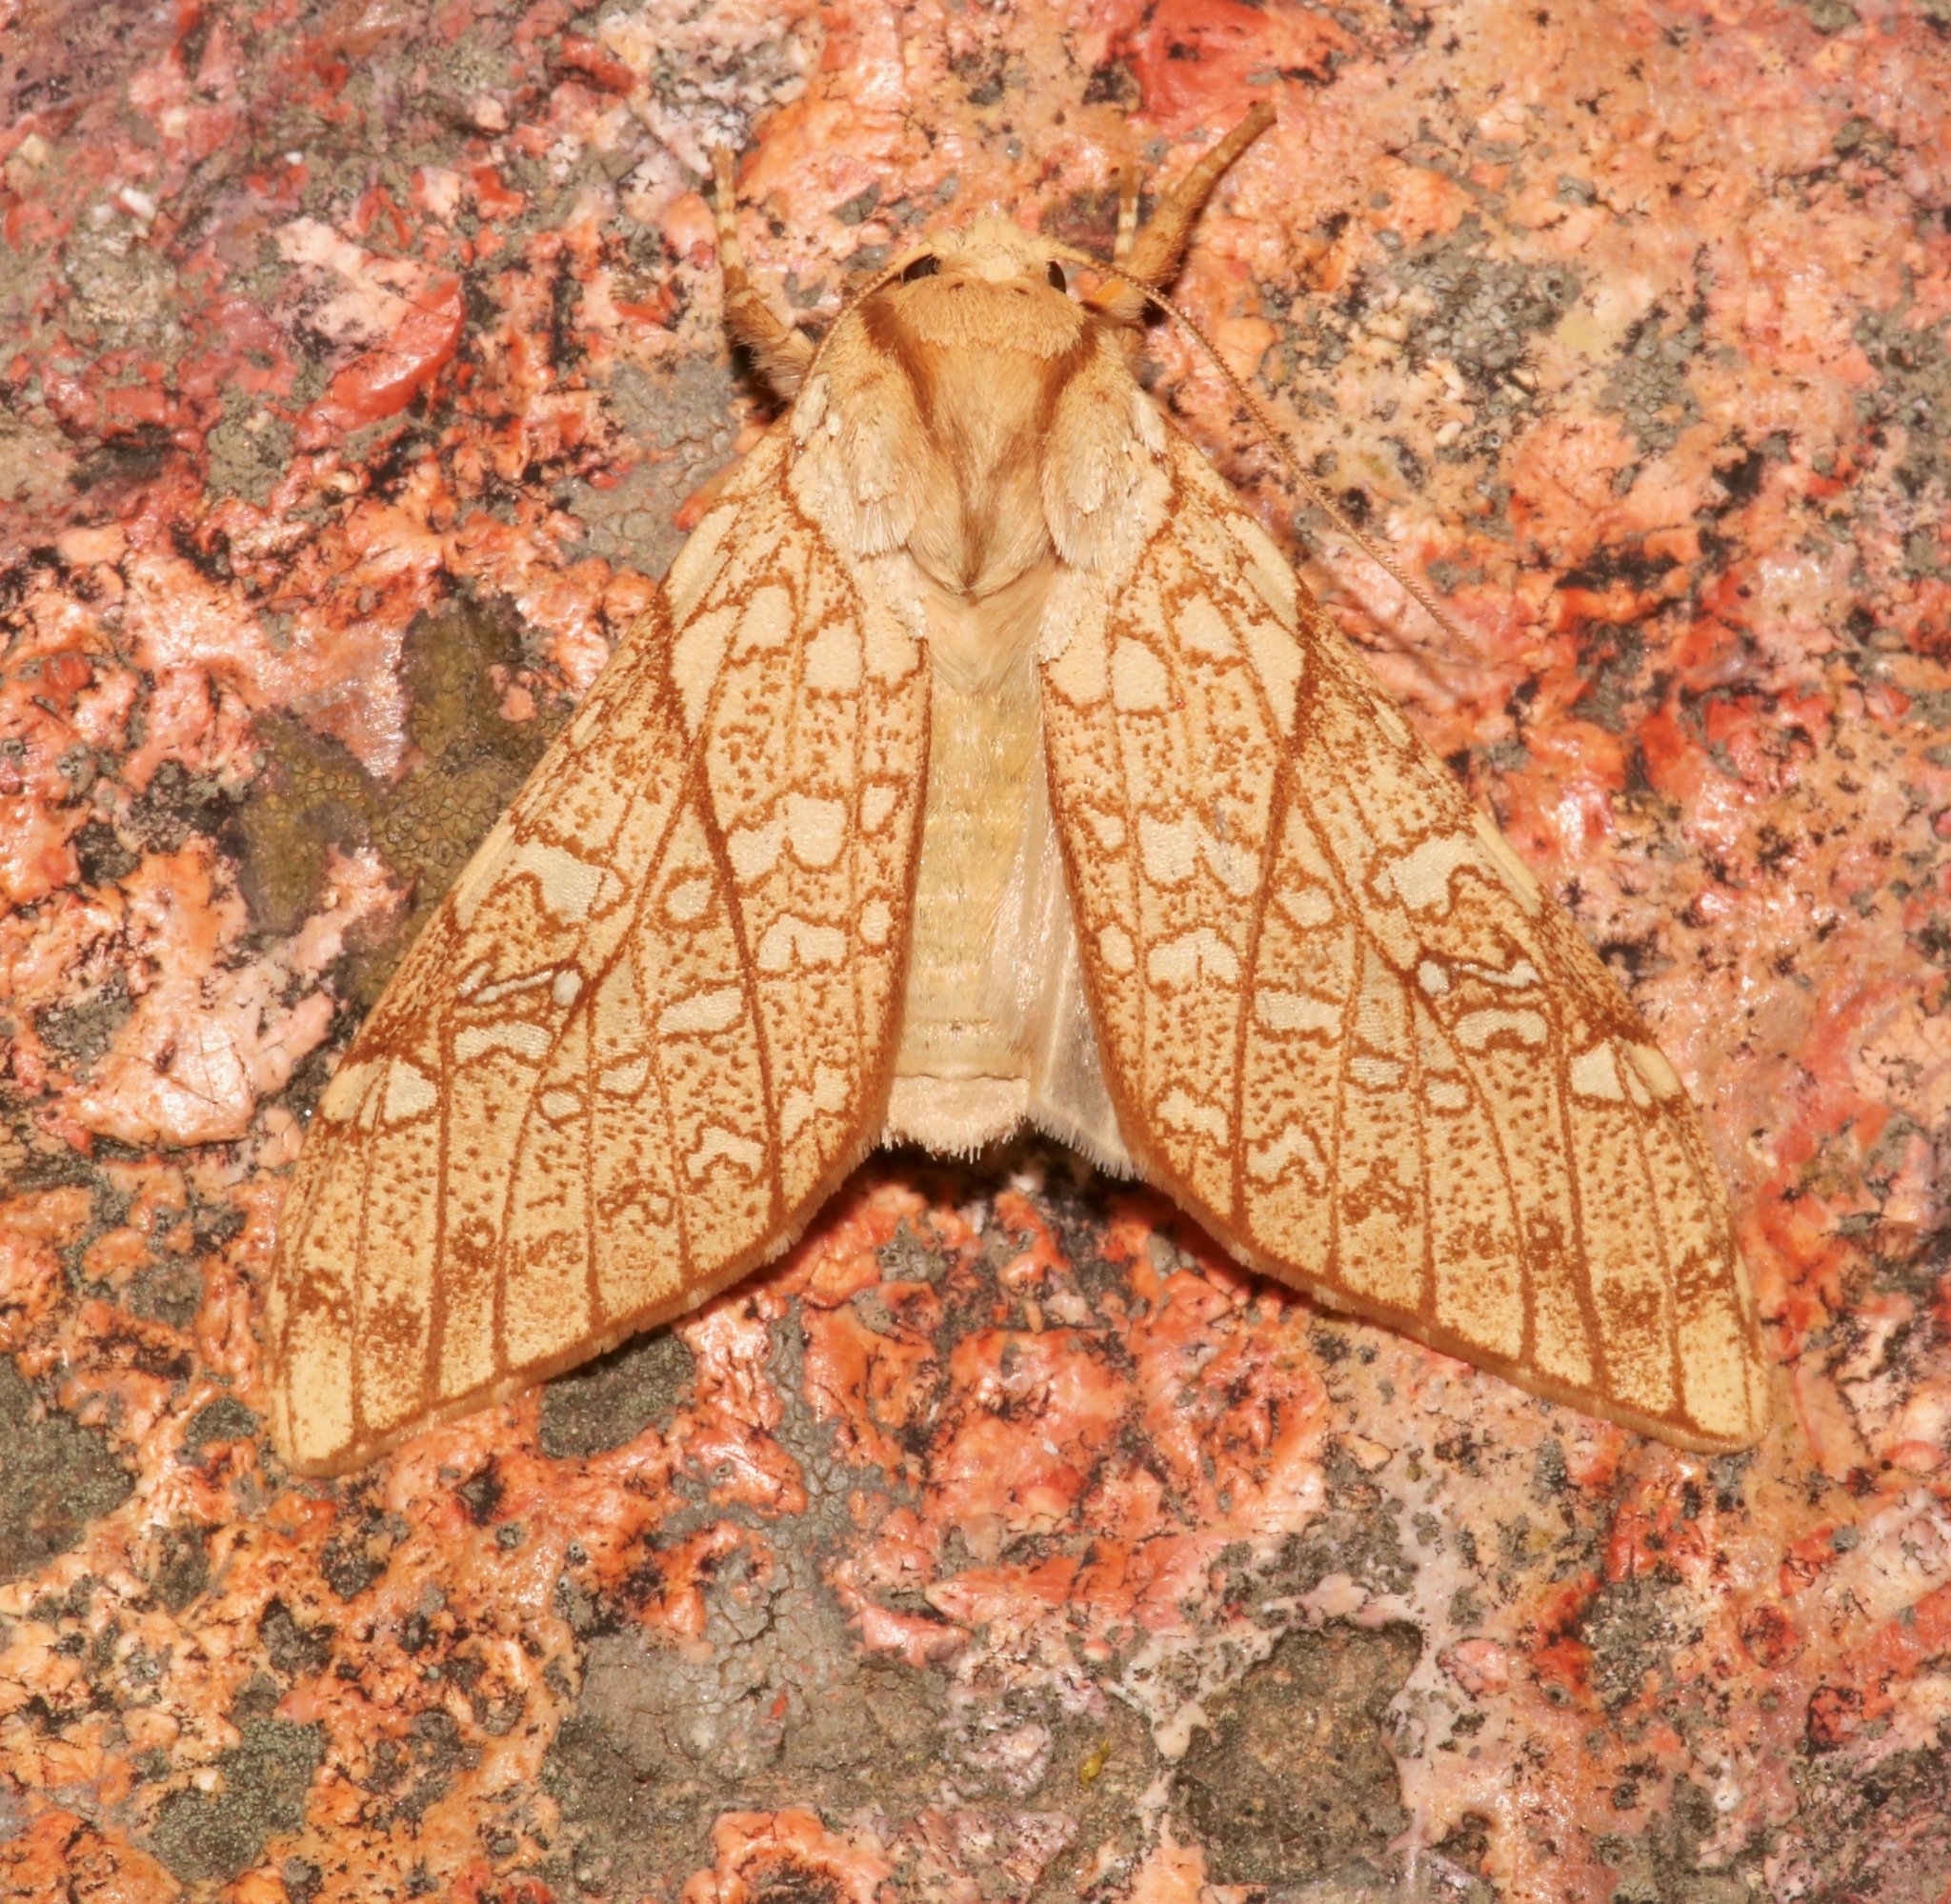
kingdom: Animalia
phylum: Arthropoda
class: Insecta
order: Lepidoptera
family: Erebidae
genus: Lophocampa
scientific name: Lophocampa mixta
